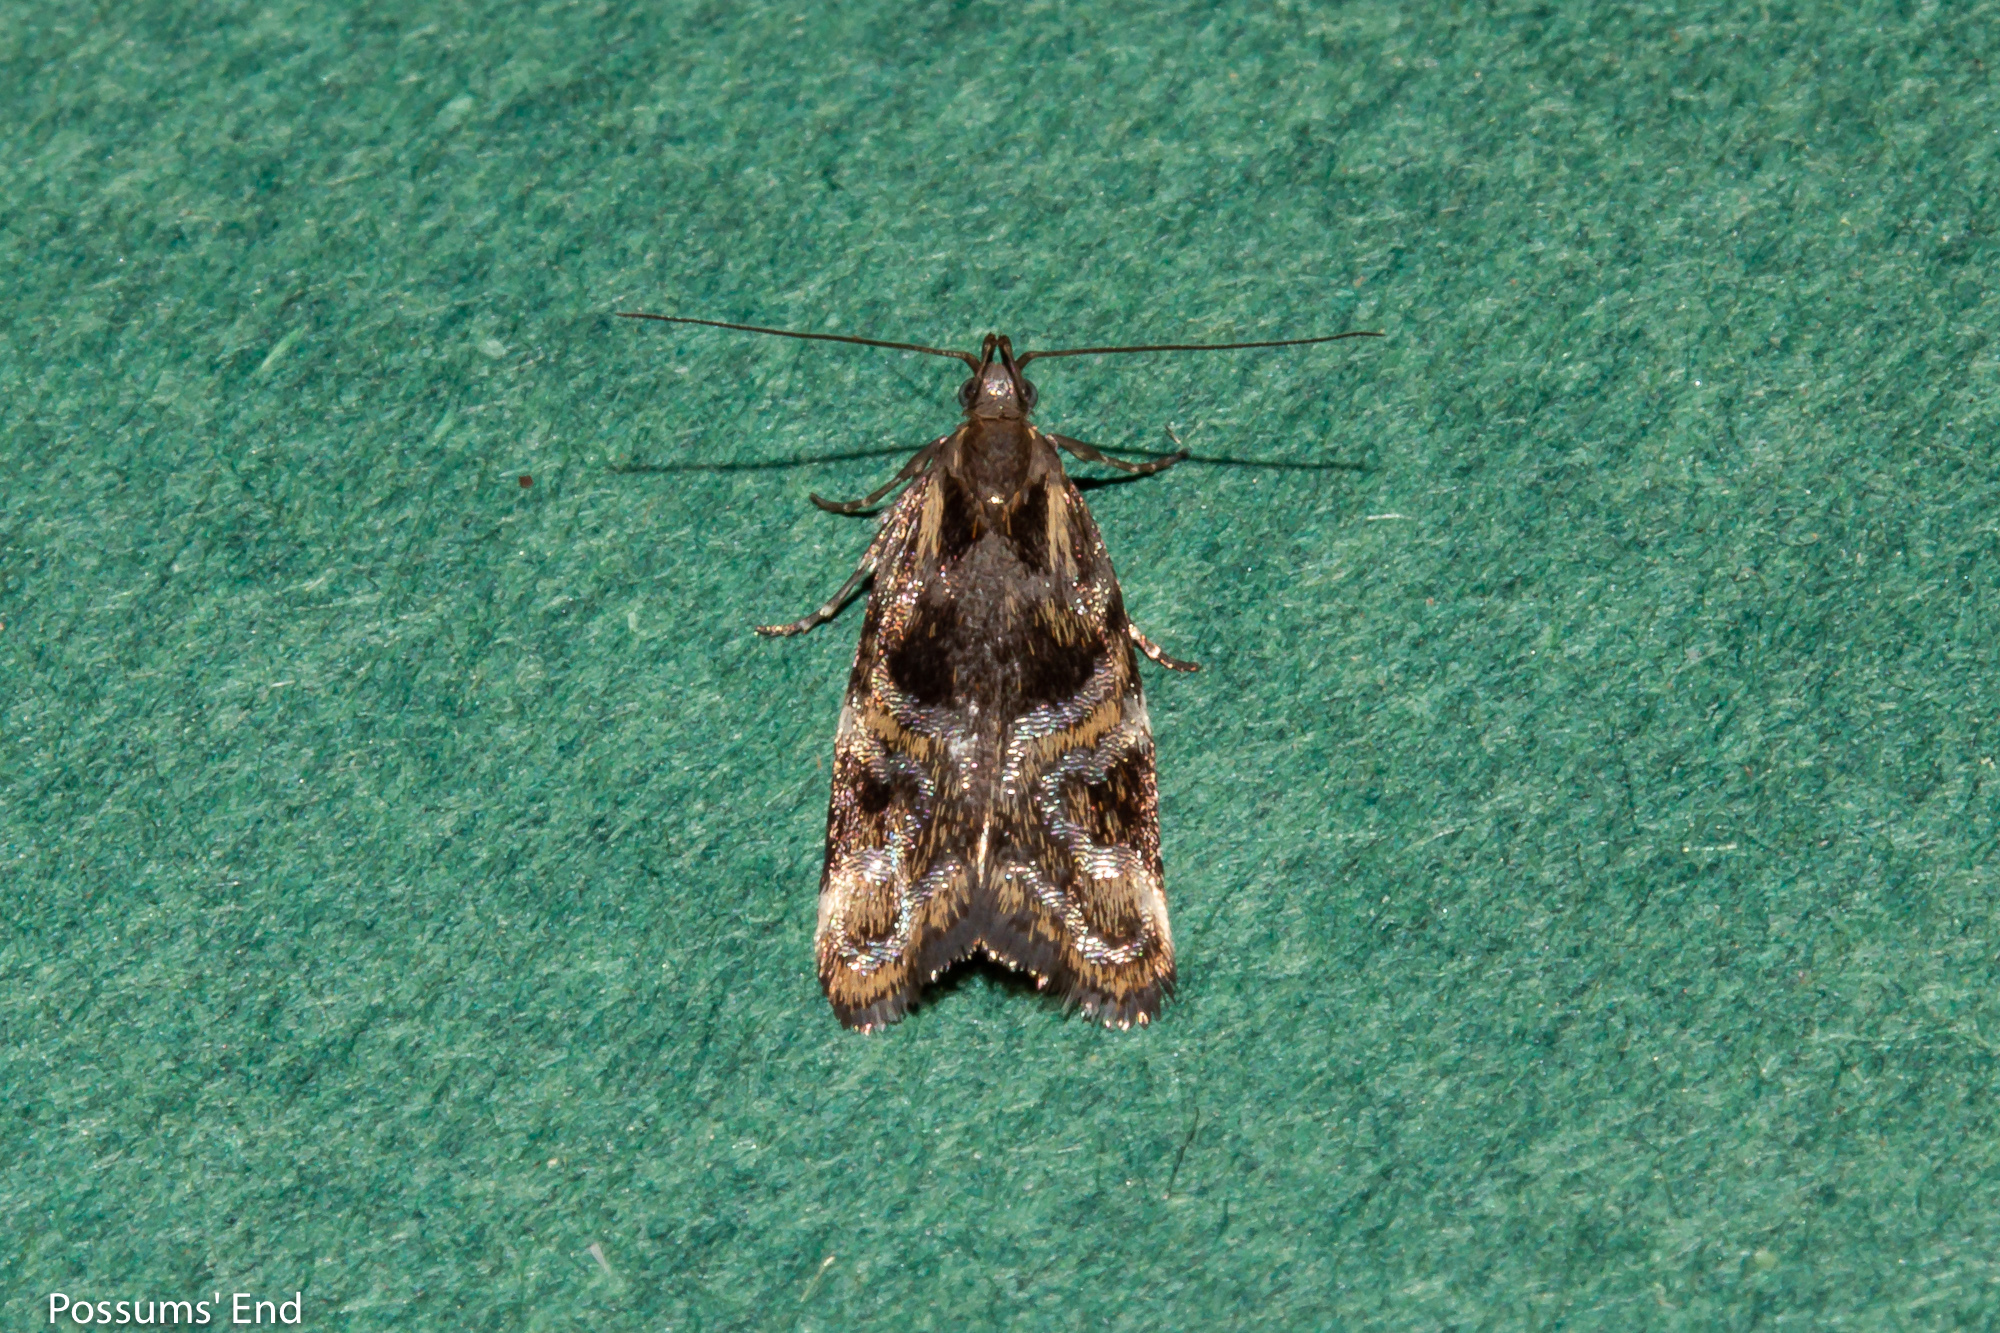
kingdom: Animalia
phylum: Arthropoda
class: Insecta
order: Lepidoptera
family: Oecophoridae
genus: Hierodoris
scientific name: Hierodoris s-fractum
